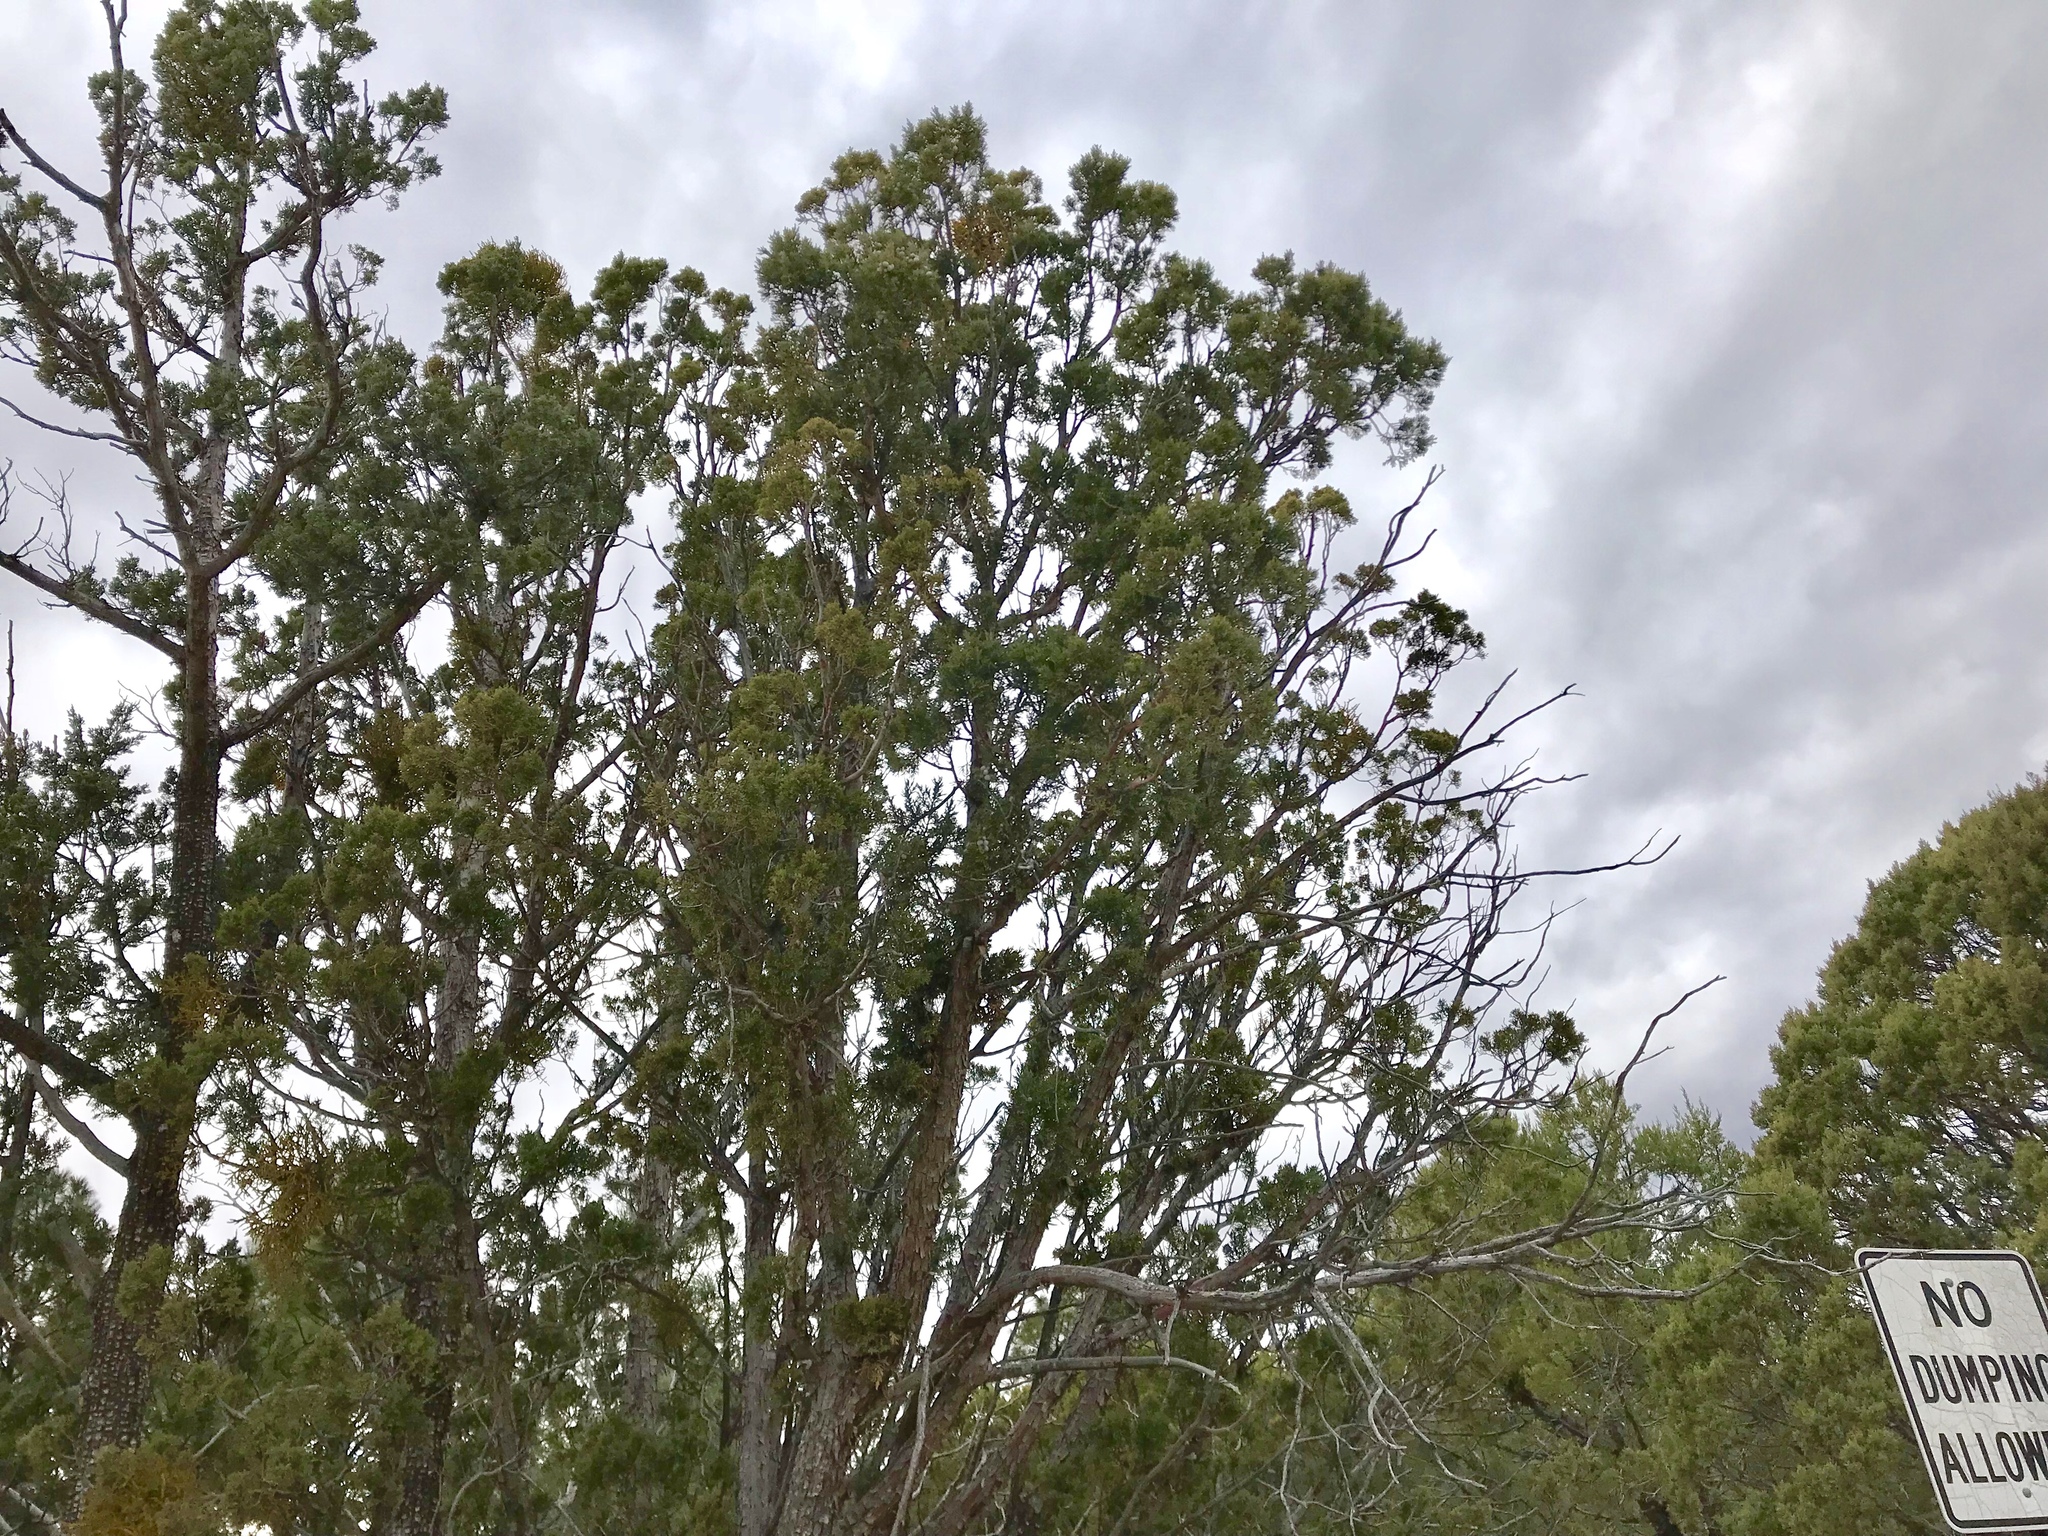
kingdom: Plantae
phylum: Tracheophyta
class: Pinopsida
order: Pinales
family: Cupressaceae
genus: Juniperus
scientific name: Juniperus deppeana
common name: Alligator juniper
